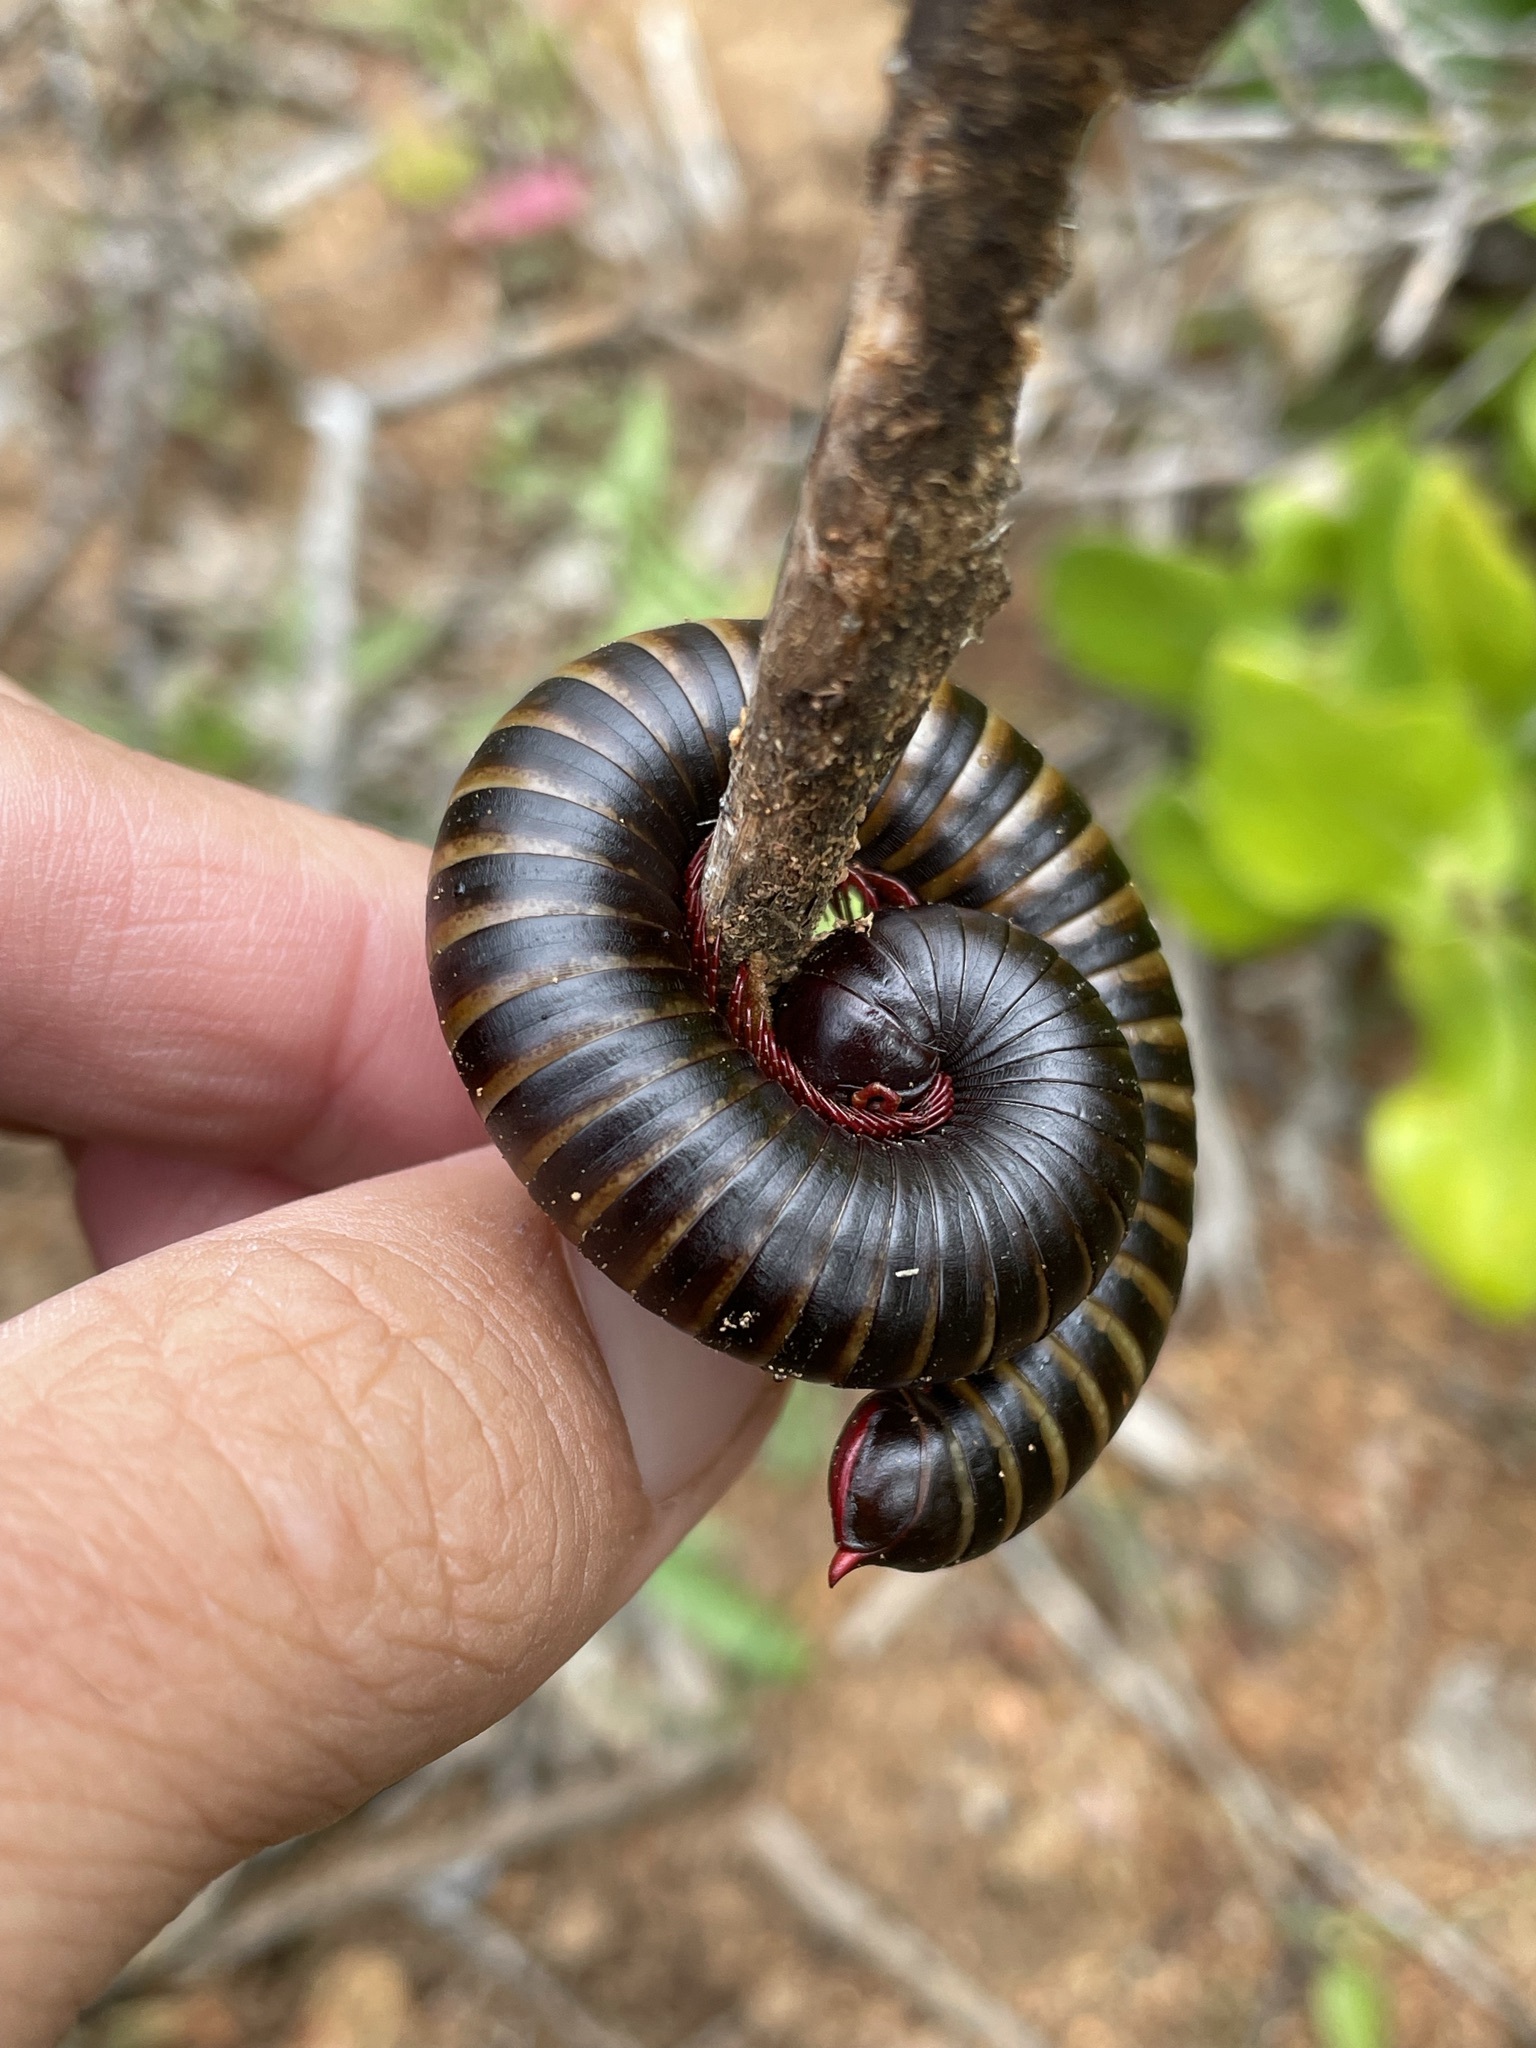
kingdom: Animalia
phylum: Arthropoda
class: Diplopoda
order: Spirostreptida
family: Harpagophoridae
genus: Metaphora
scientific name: Metaphora spirobolina
